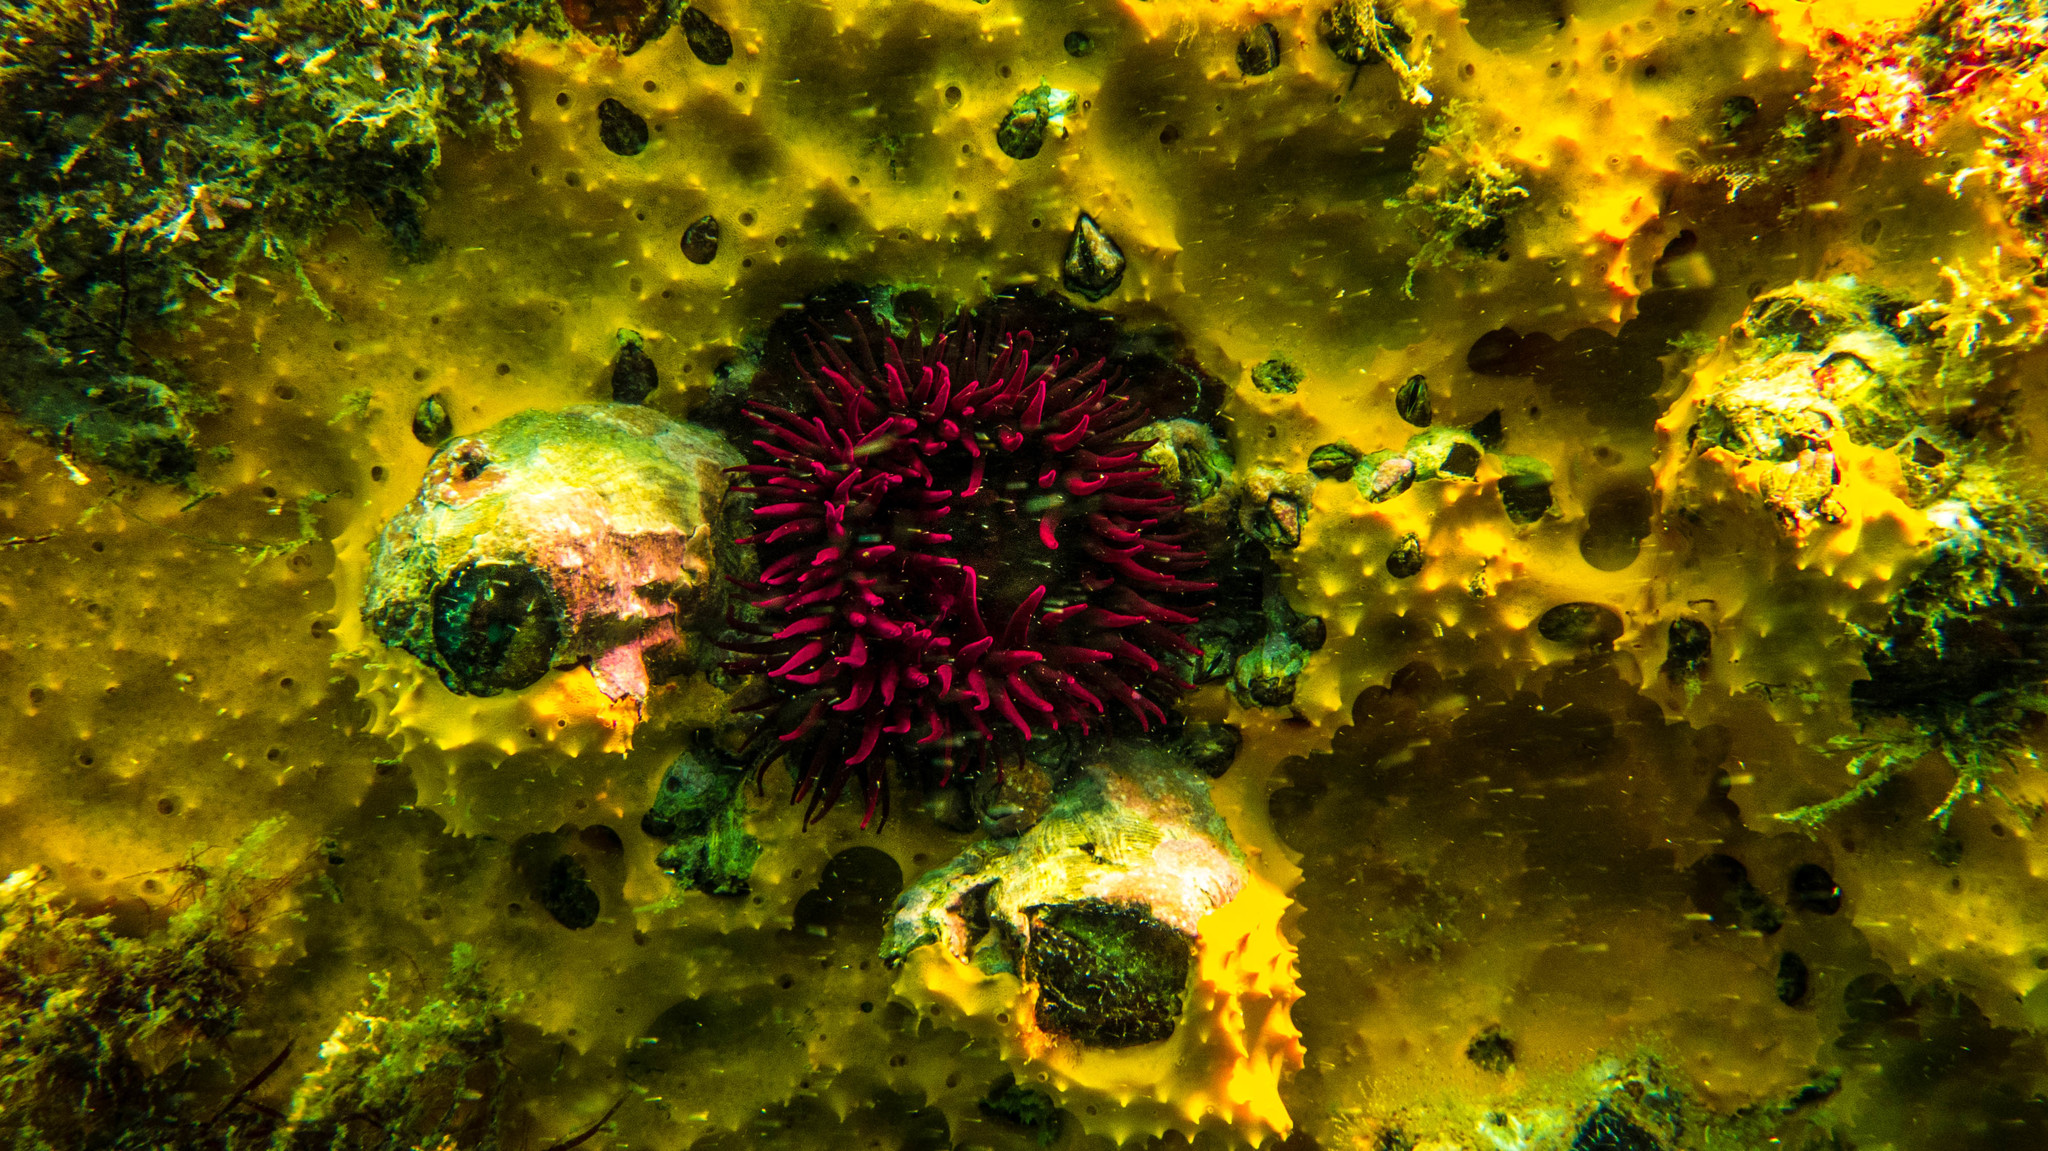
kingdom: Animalia
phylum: Cnidaria
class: Anthozoa
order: Actiniaria
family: Actiniidae
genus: Bunodosoma
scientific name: Bunodosoma caissarum
